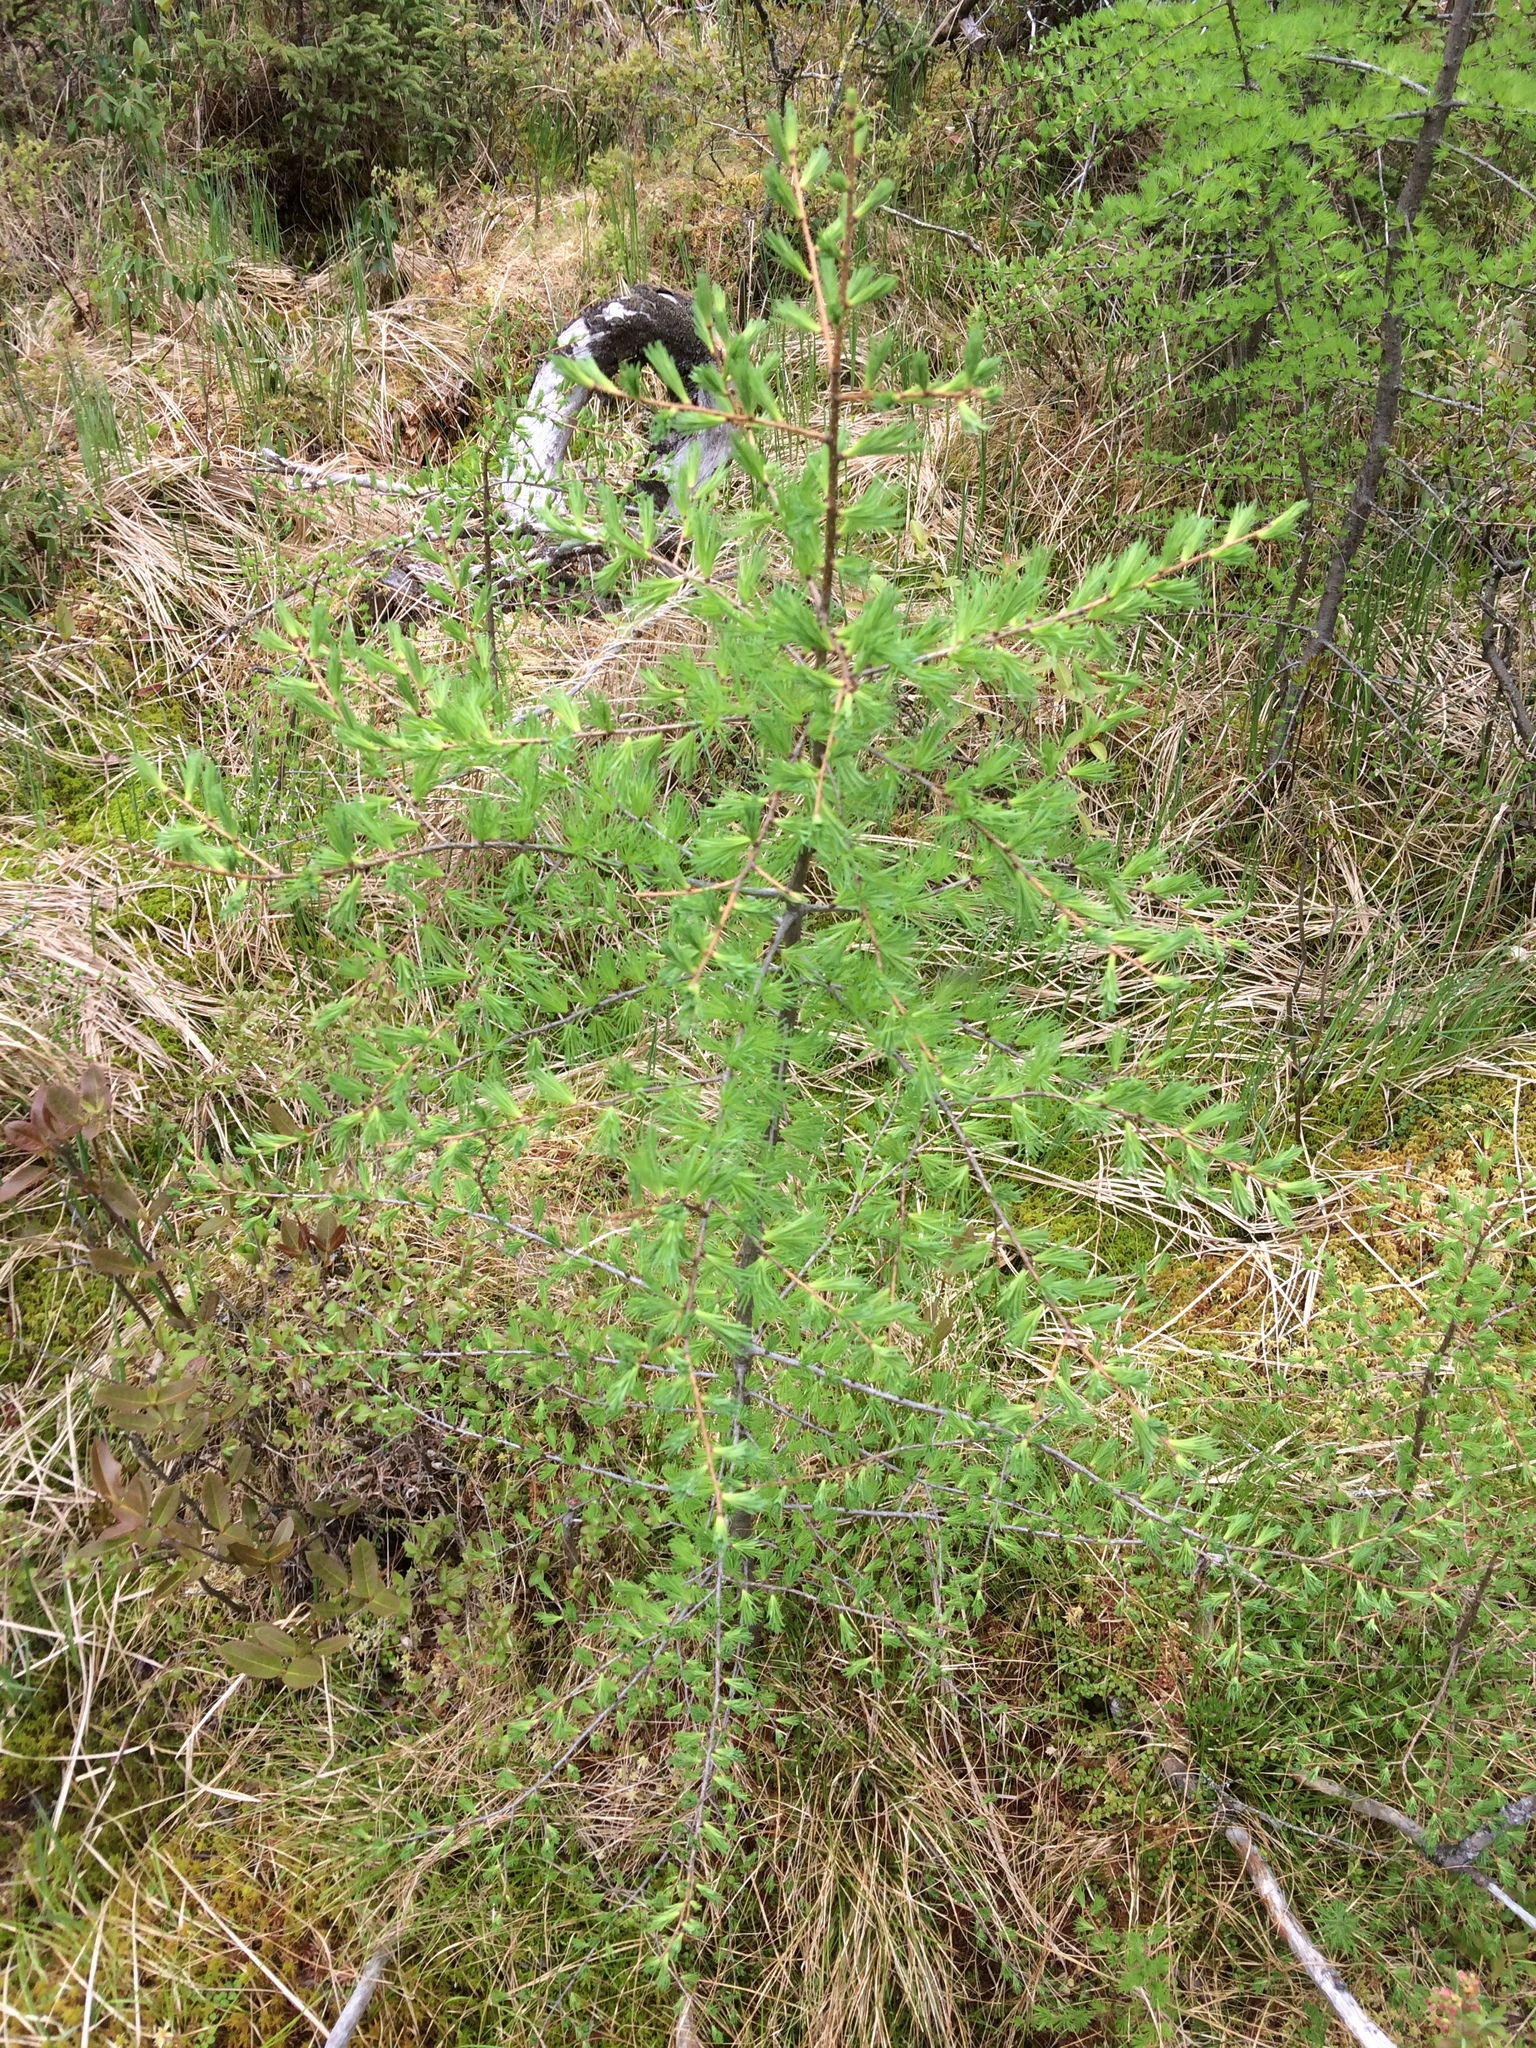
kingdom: Plantae
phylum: Tracheophyta
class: Pinopsida
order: Pinales
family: Pinaceae
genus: Larix
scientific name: Larix laricina
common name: American larch
